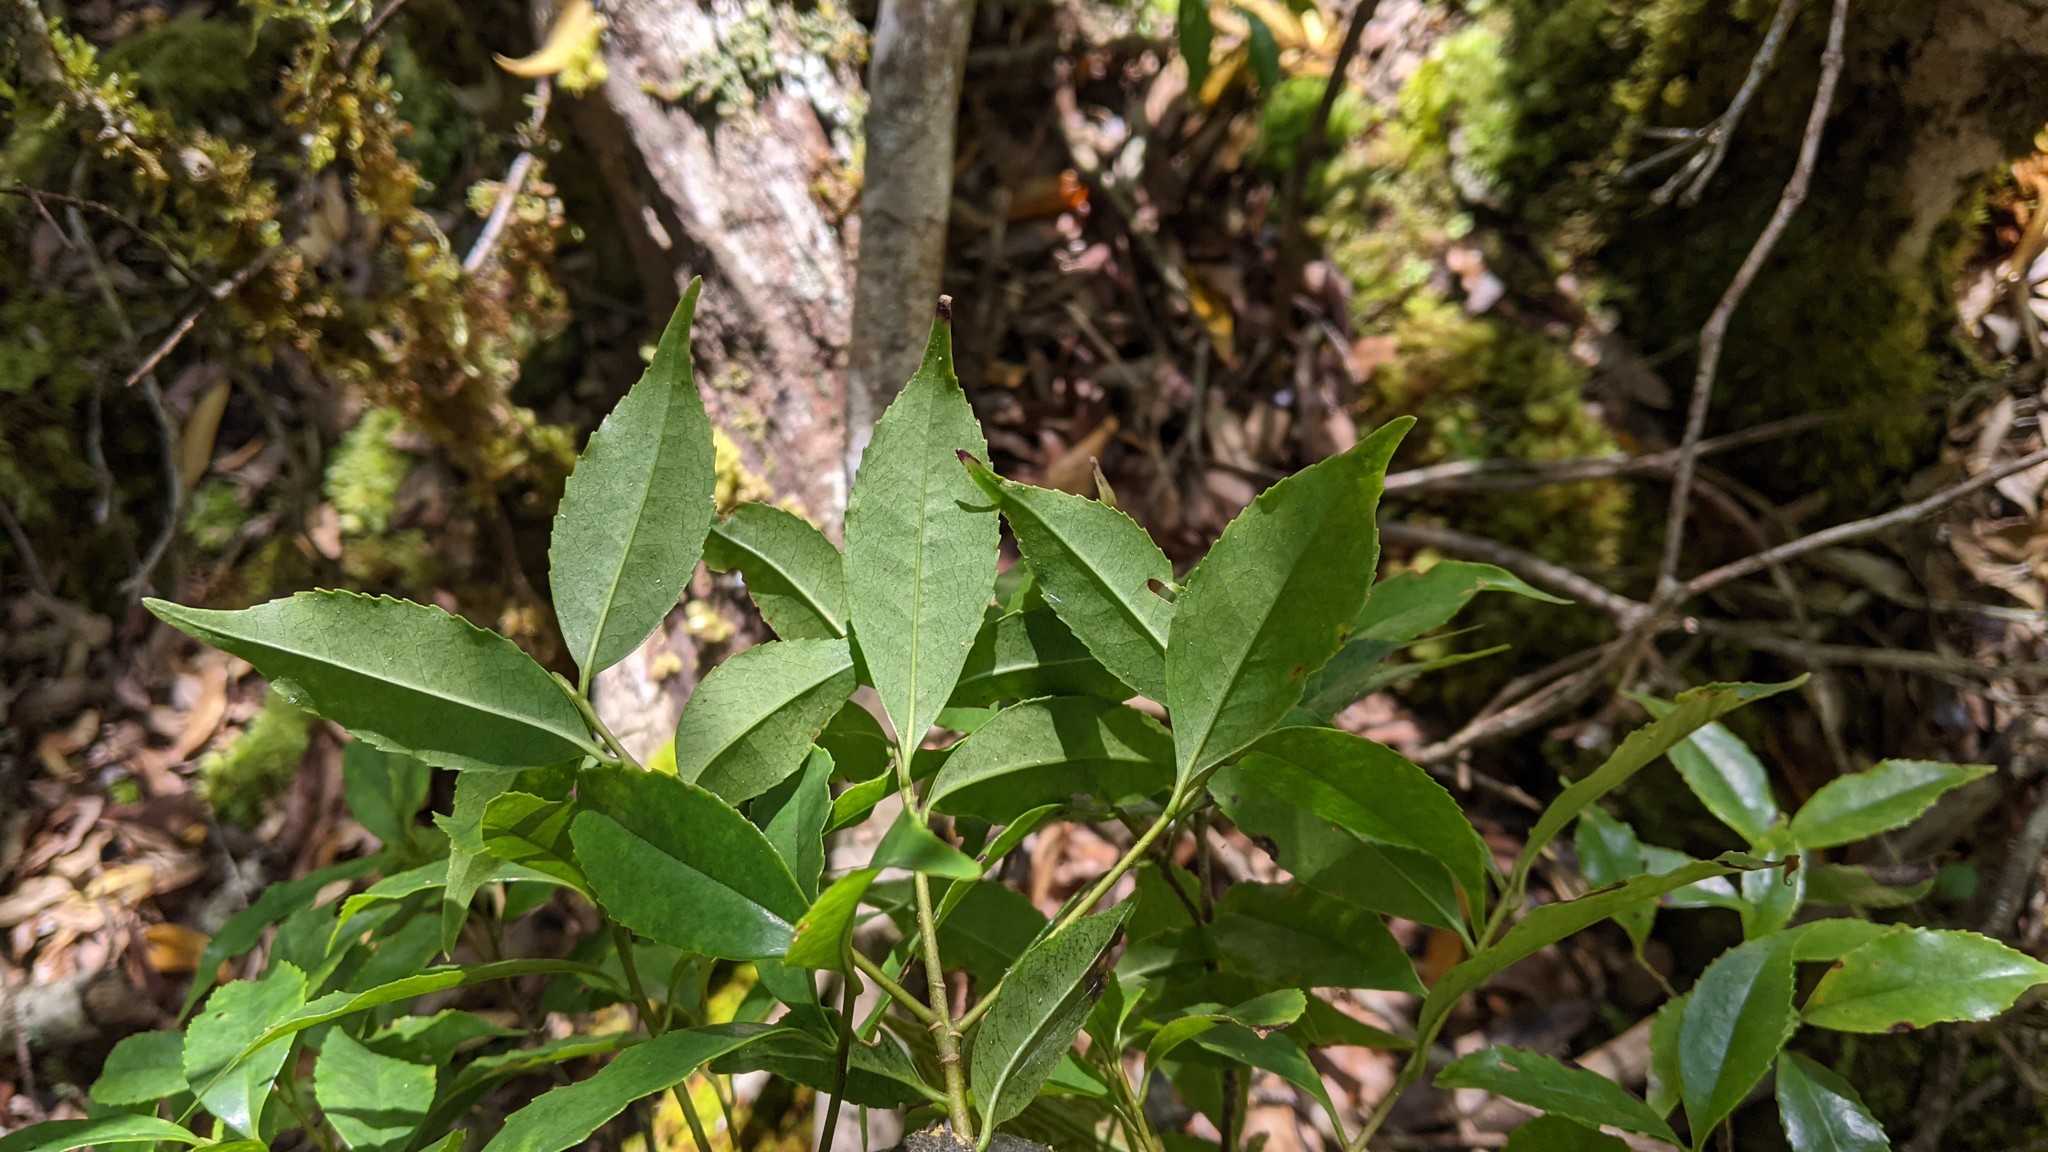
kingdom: Plantae
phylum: Tracheophyta
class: Magnoliopsida
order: Ericales
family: Symplocaceae
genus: Symplocos
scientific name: Symplocos heishanensis
